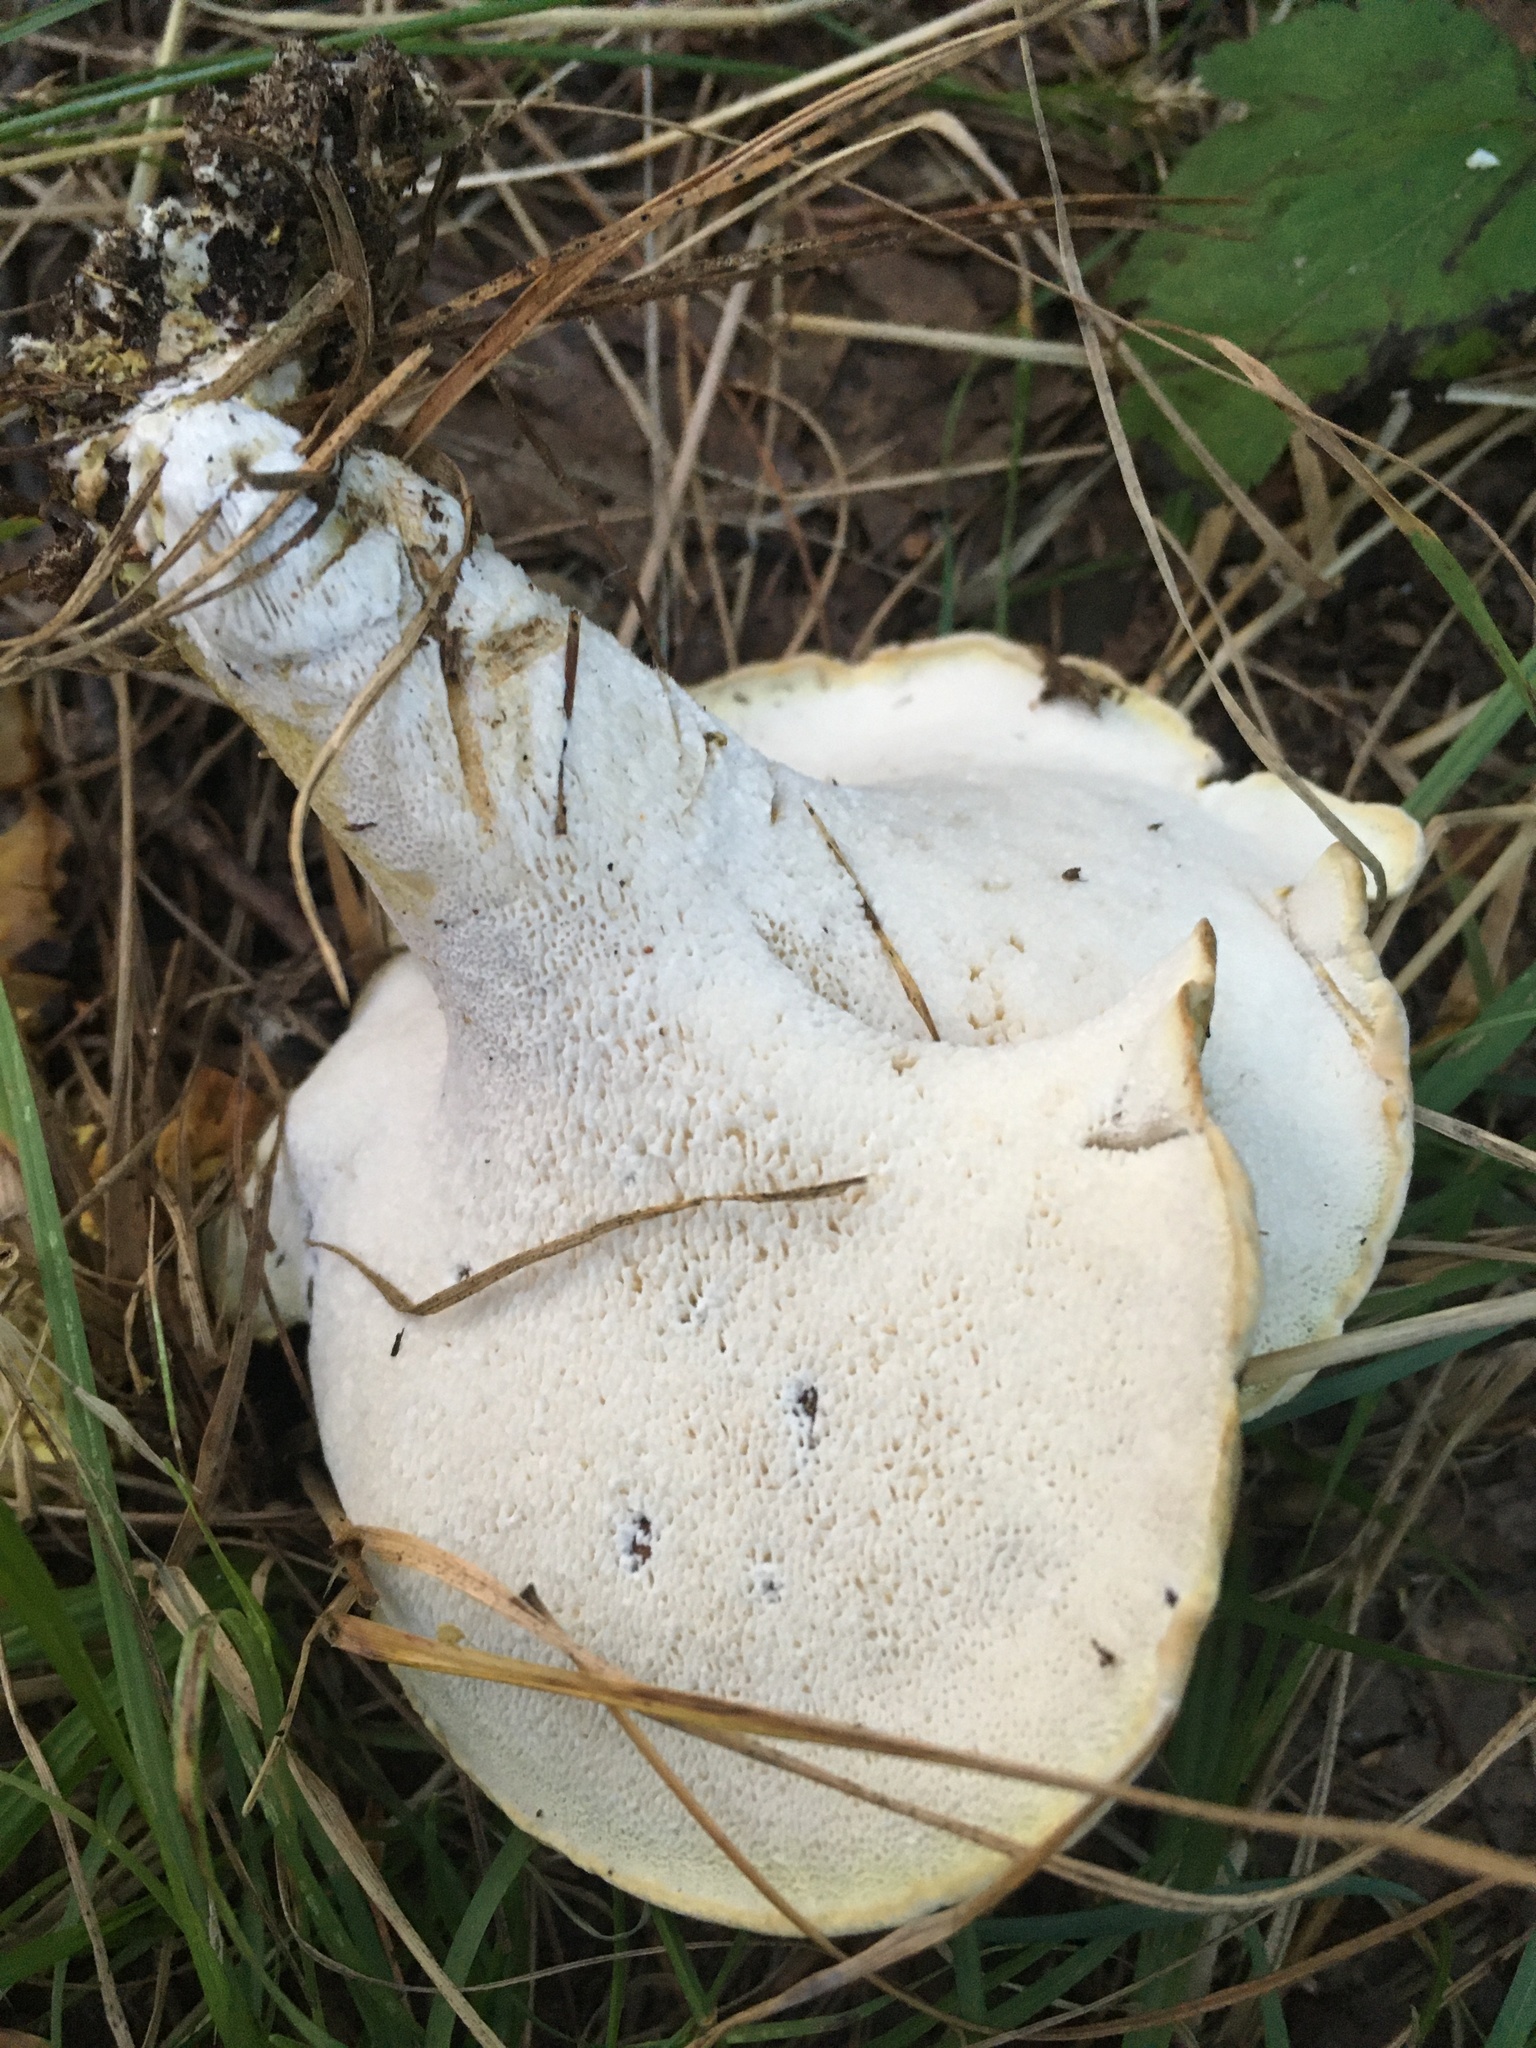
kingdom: Fungi
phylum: Basidiomycota
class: Agaricomycetes
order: Russulales
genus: Laeticutis
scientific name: Laeticutis cristata
